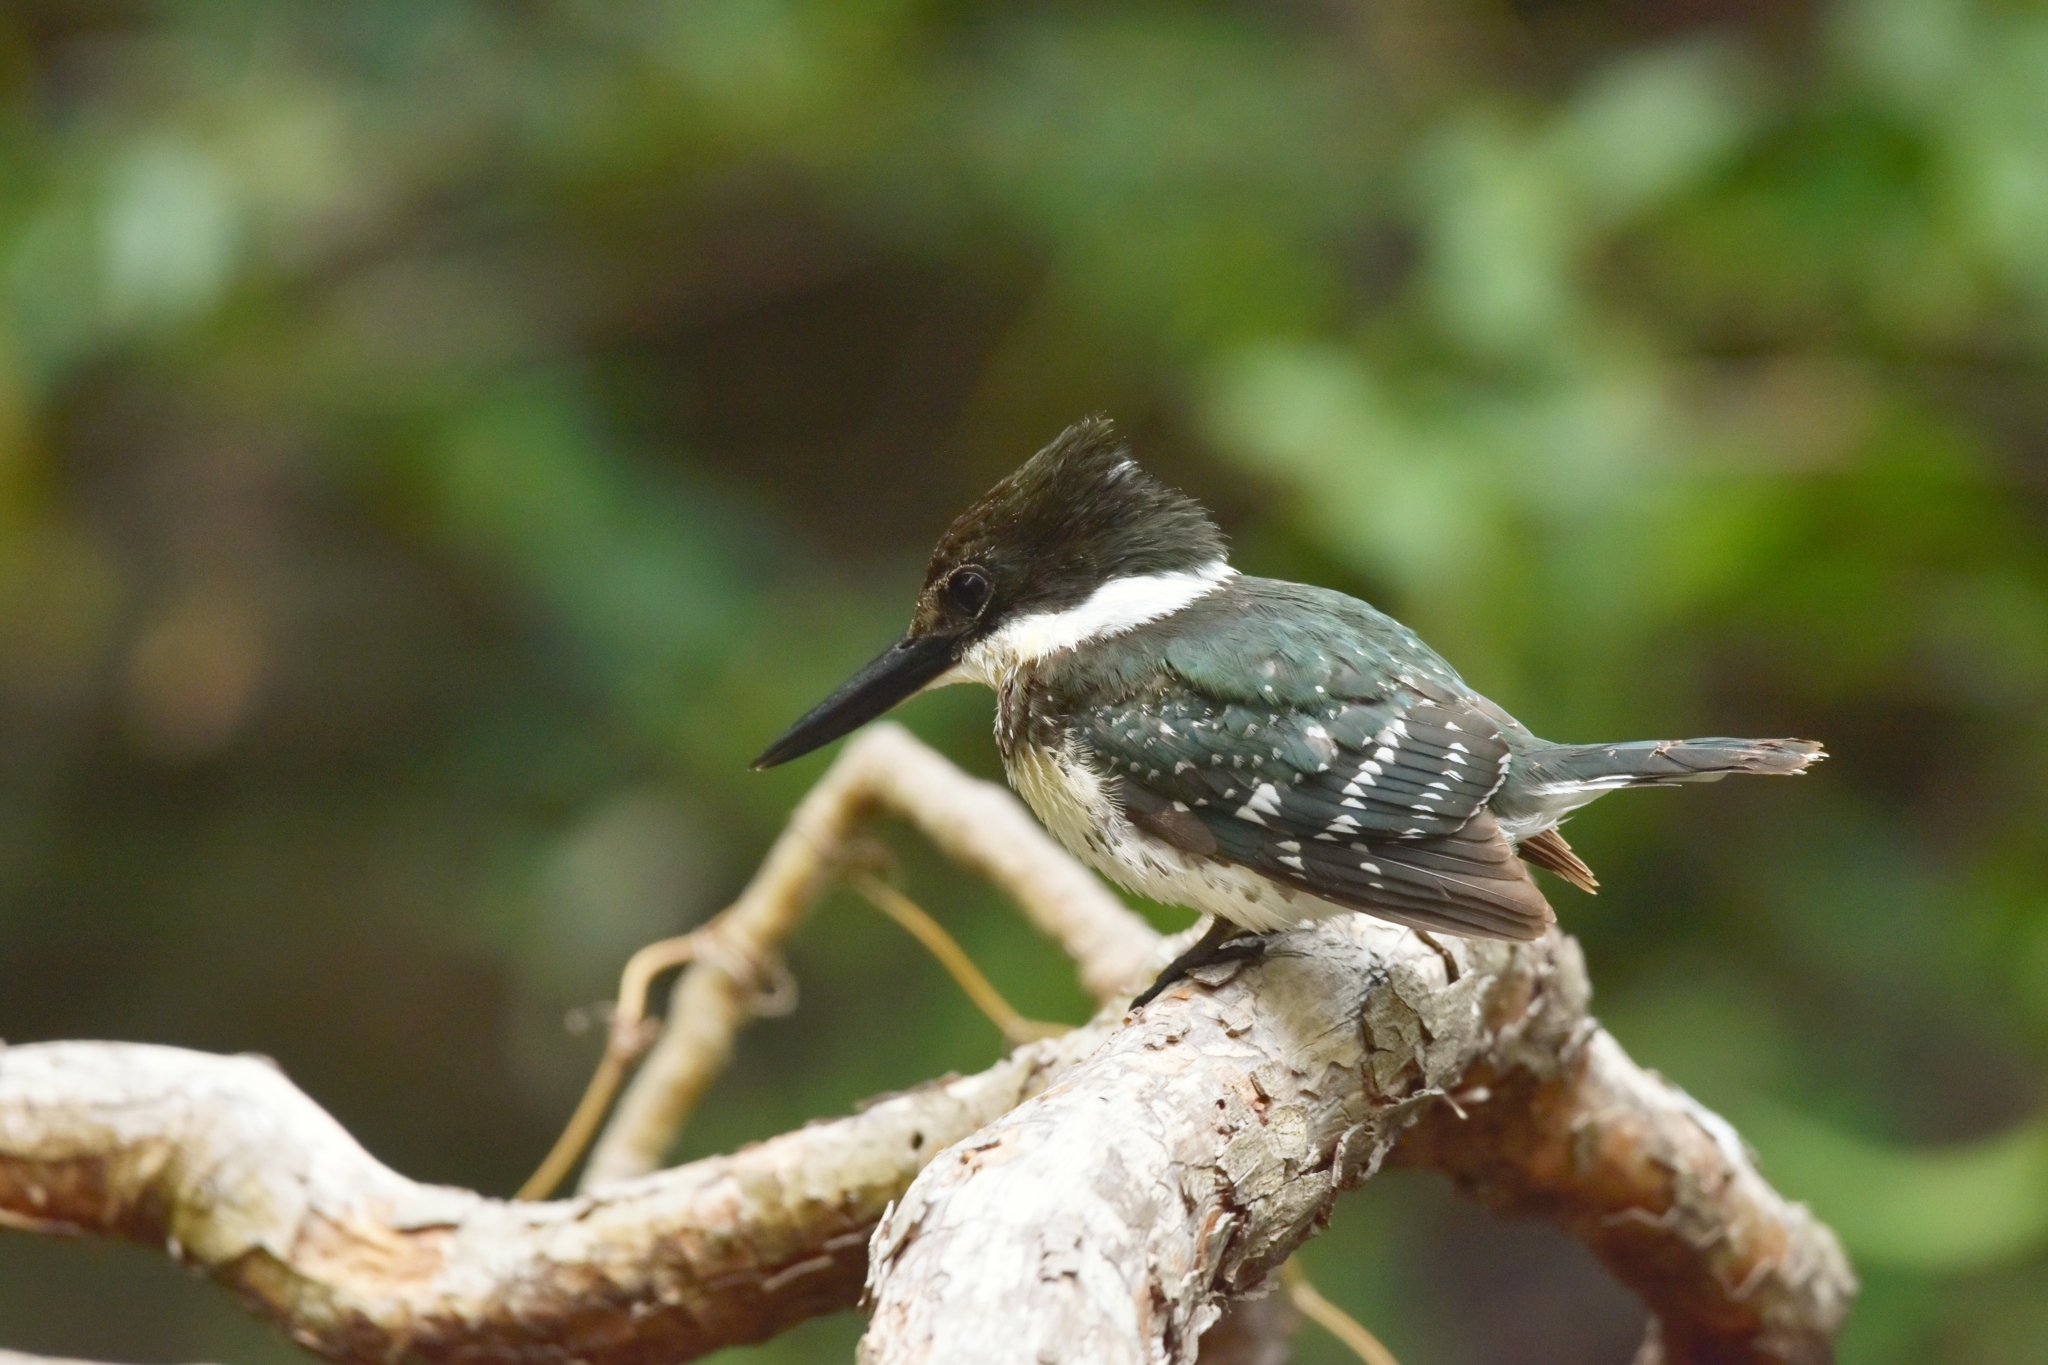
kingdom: Animalia
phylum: Chordata
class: Aves
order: Coraciiformes
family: Alcedinidae
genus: Chloroceryle
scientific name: Chloroceryle americana
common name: Green kingfisher
